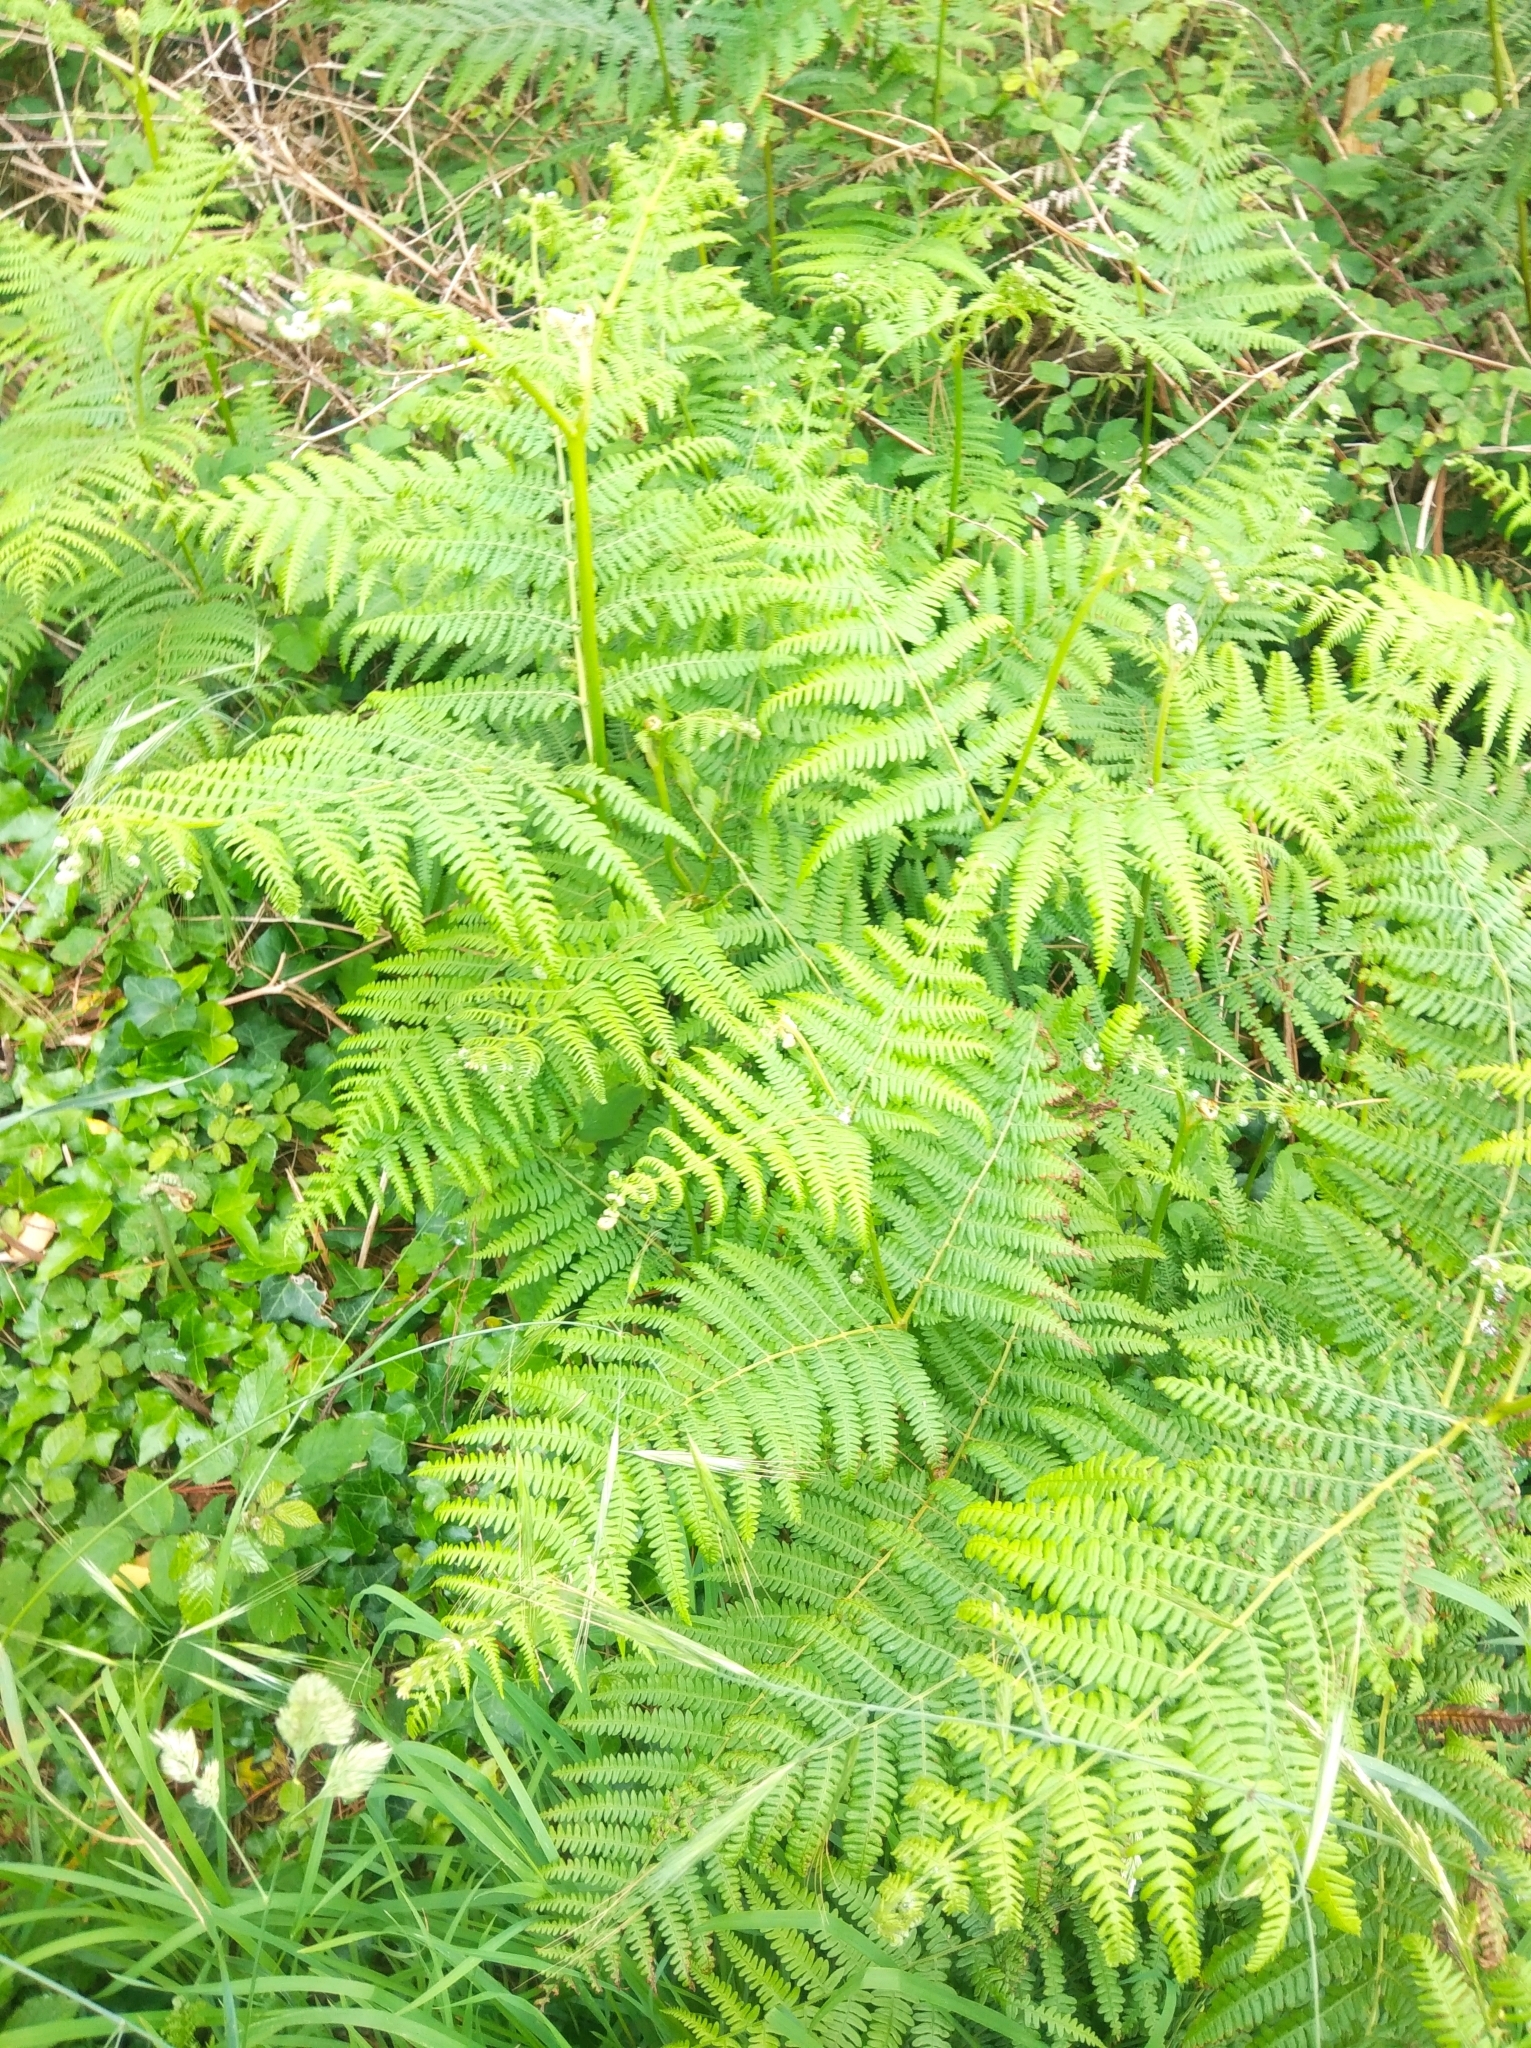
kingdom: Plantae
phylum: Tracheophyta
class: Polypodiopsida
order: Polypodiales
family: Dennstaedtiaceae
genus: Pteridium
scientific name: Pteridium aquilinum
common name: Bracken
